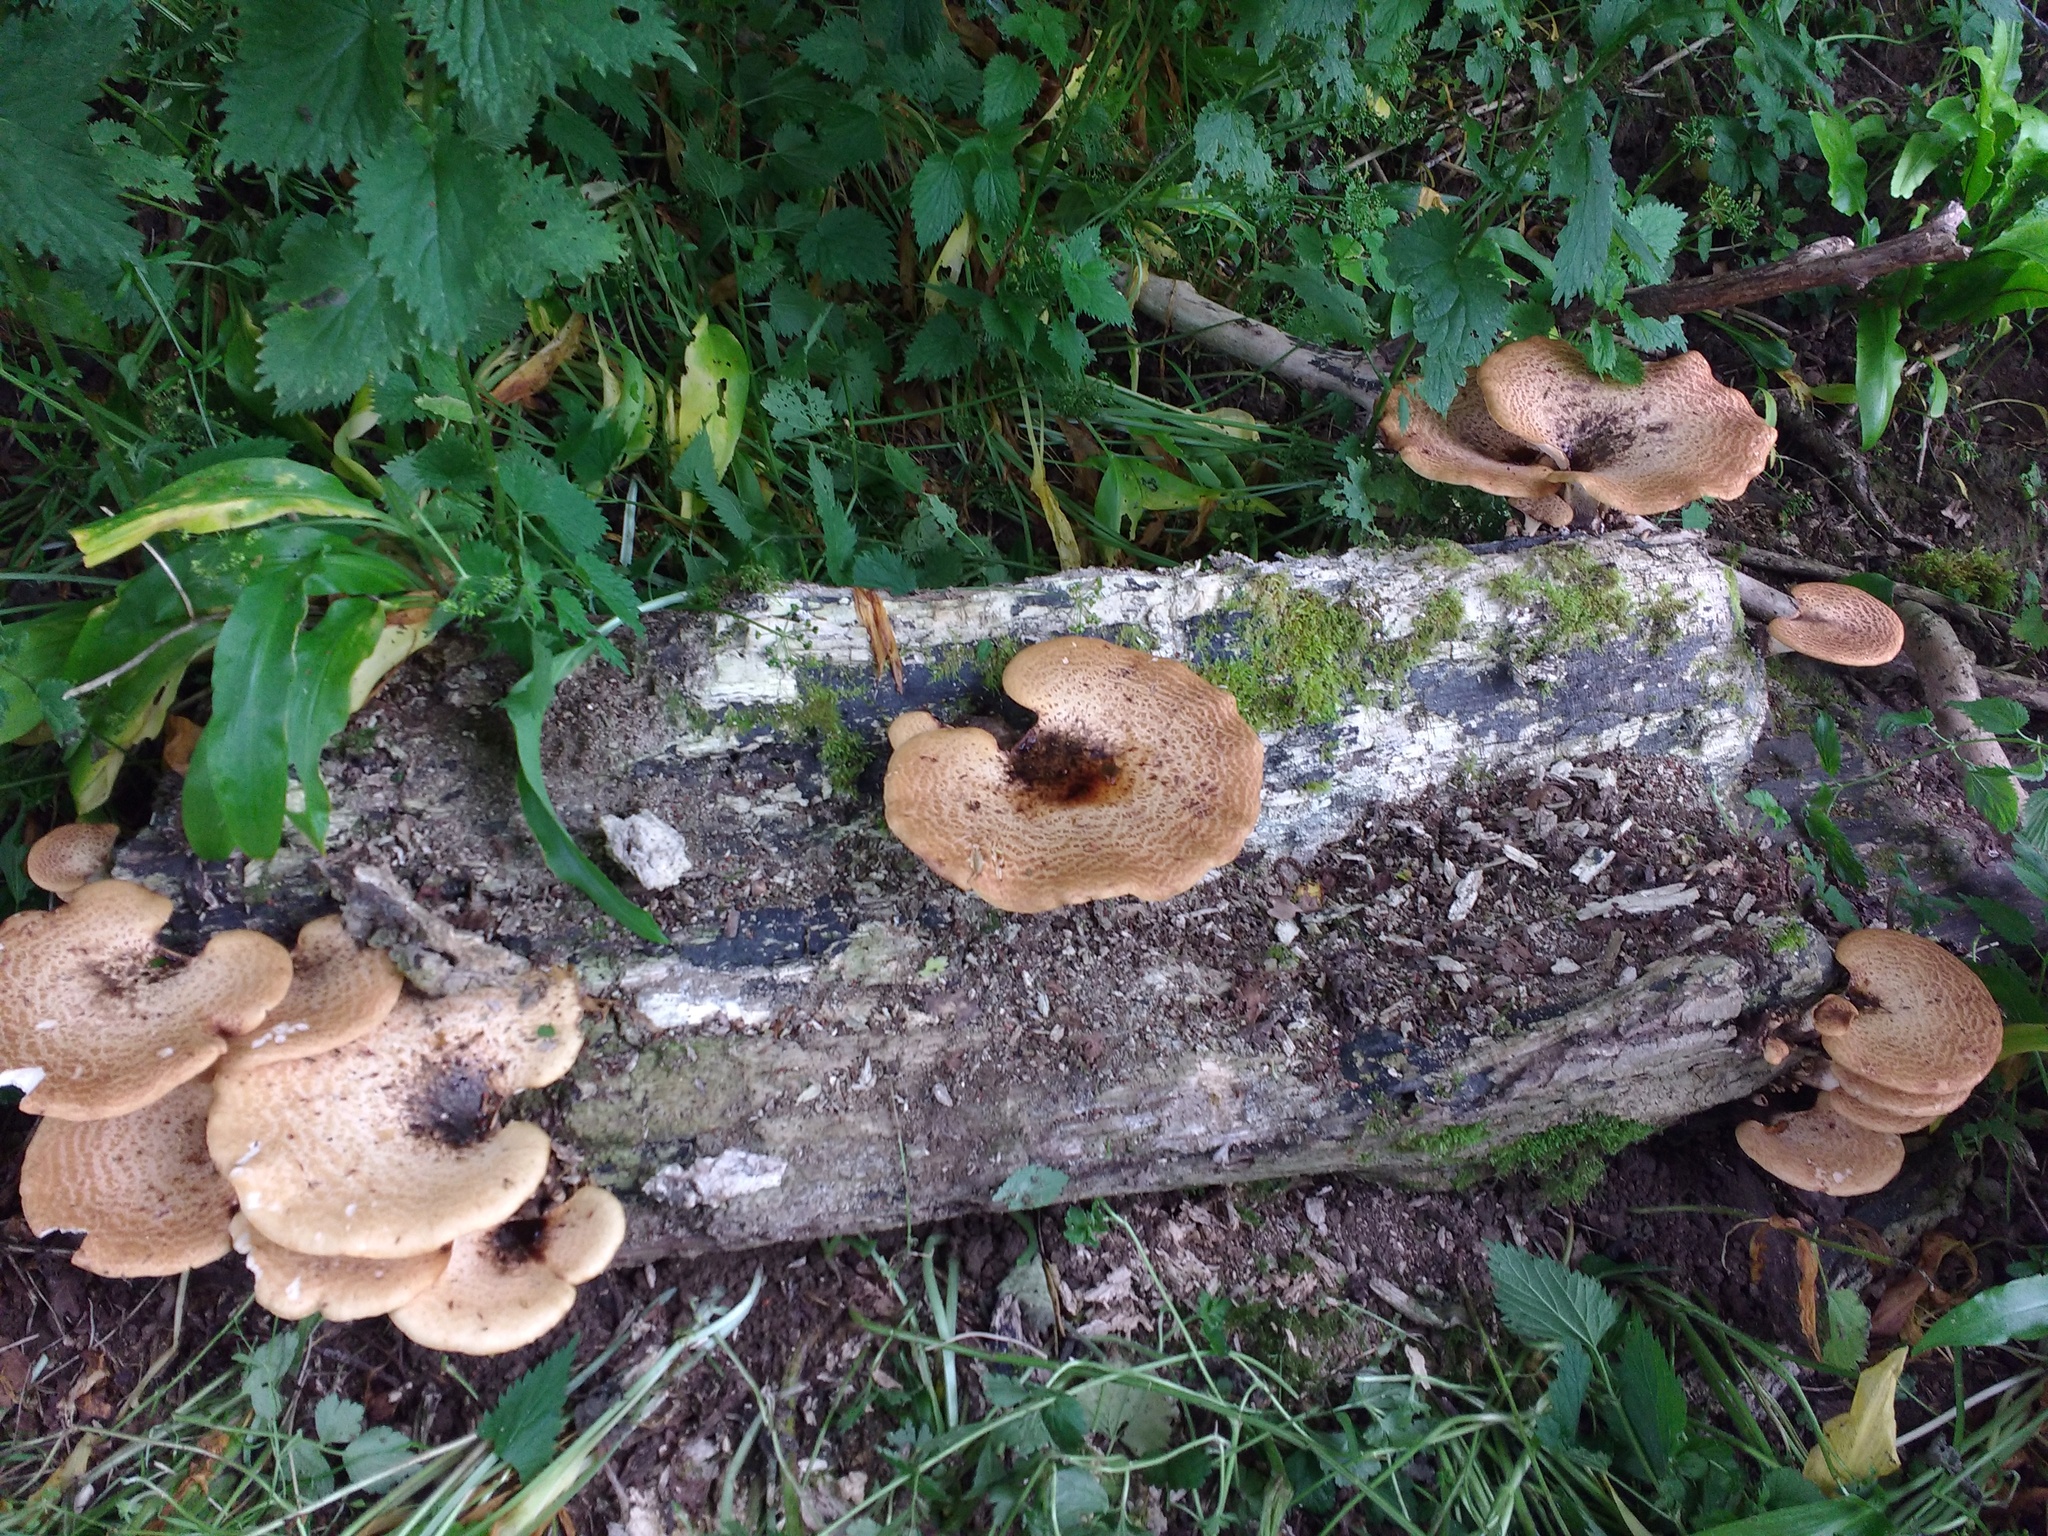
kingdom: Fungi
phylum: Basidiomycota
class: Agaricomycetes
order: Polyporales
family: Polyporaceae
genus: Cerioporus
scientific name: Cerioporus squamosus
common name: Dryad's saddle
